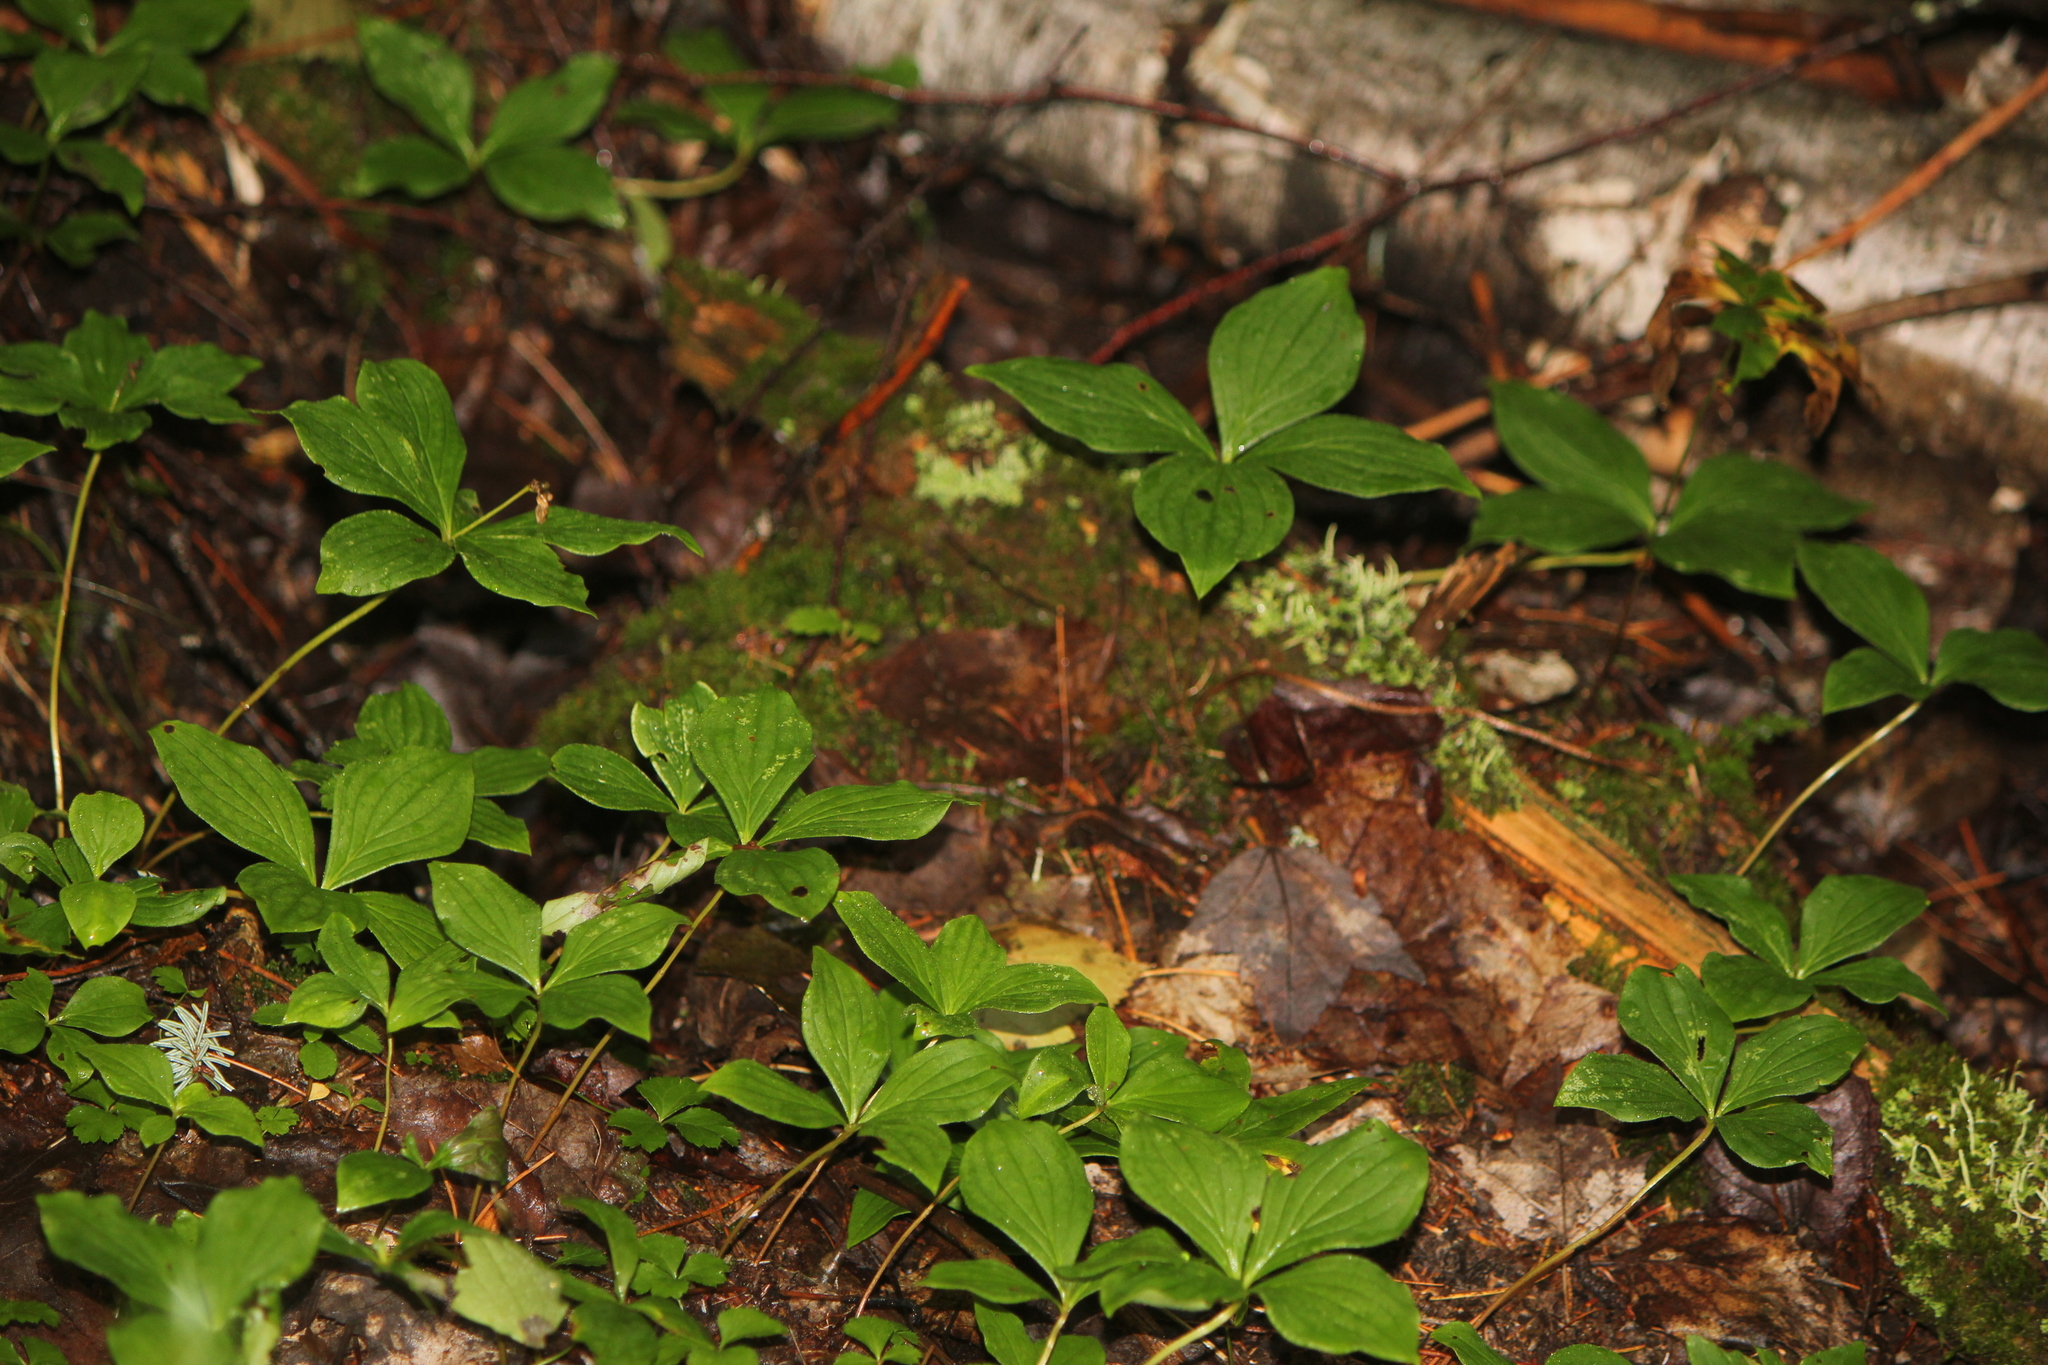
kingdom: Plantae
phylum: Tracheophyta
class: Magnoliopsida
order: Cornales
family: Cornaceae
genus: Cornus
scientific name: Cornus canadensis
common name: Creeping dogwood
